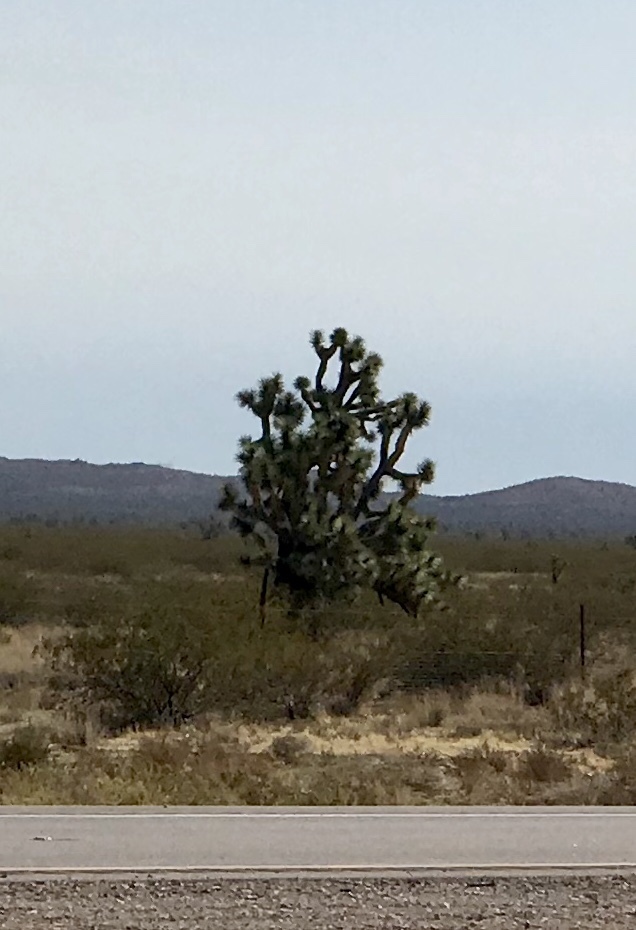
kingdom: Plantae
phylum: Tracheophyta
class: Liliopsida
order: Asparagales
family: Asparagaceae
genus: Yucca
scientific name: Yucca brevifolia
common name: Joshua tree
